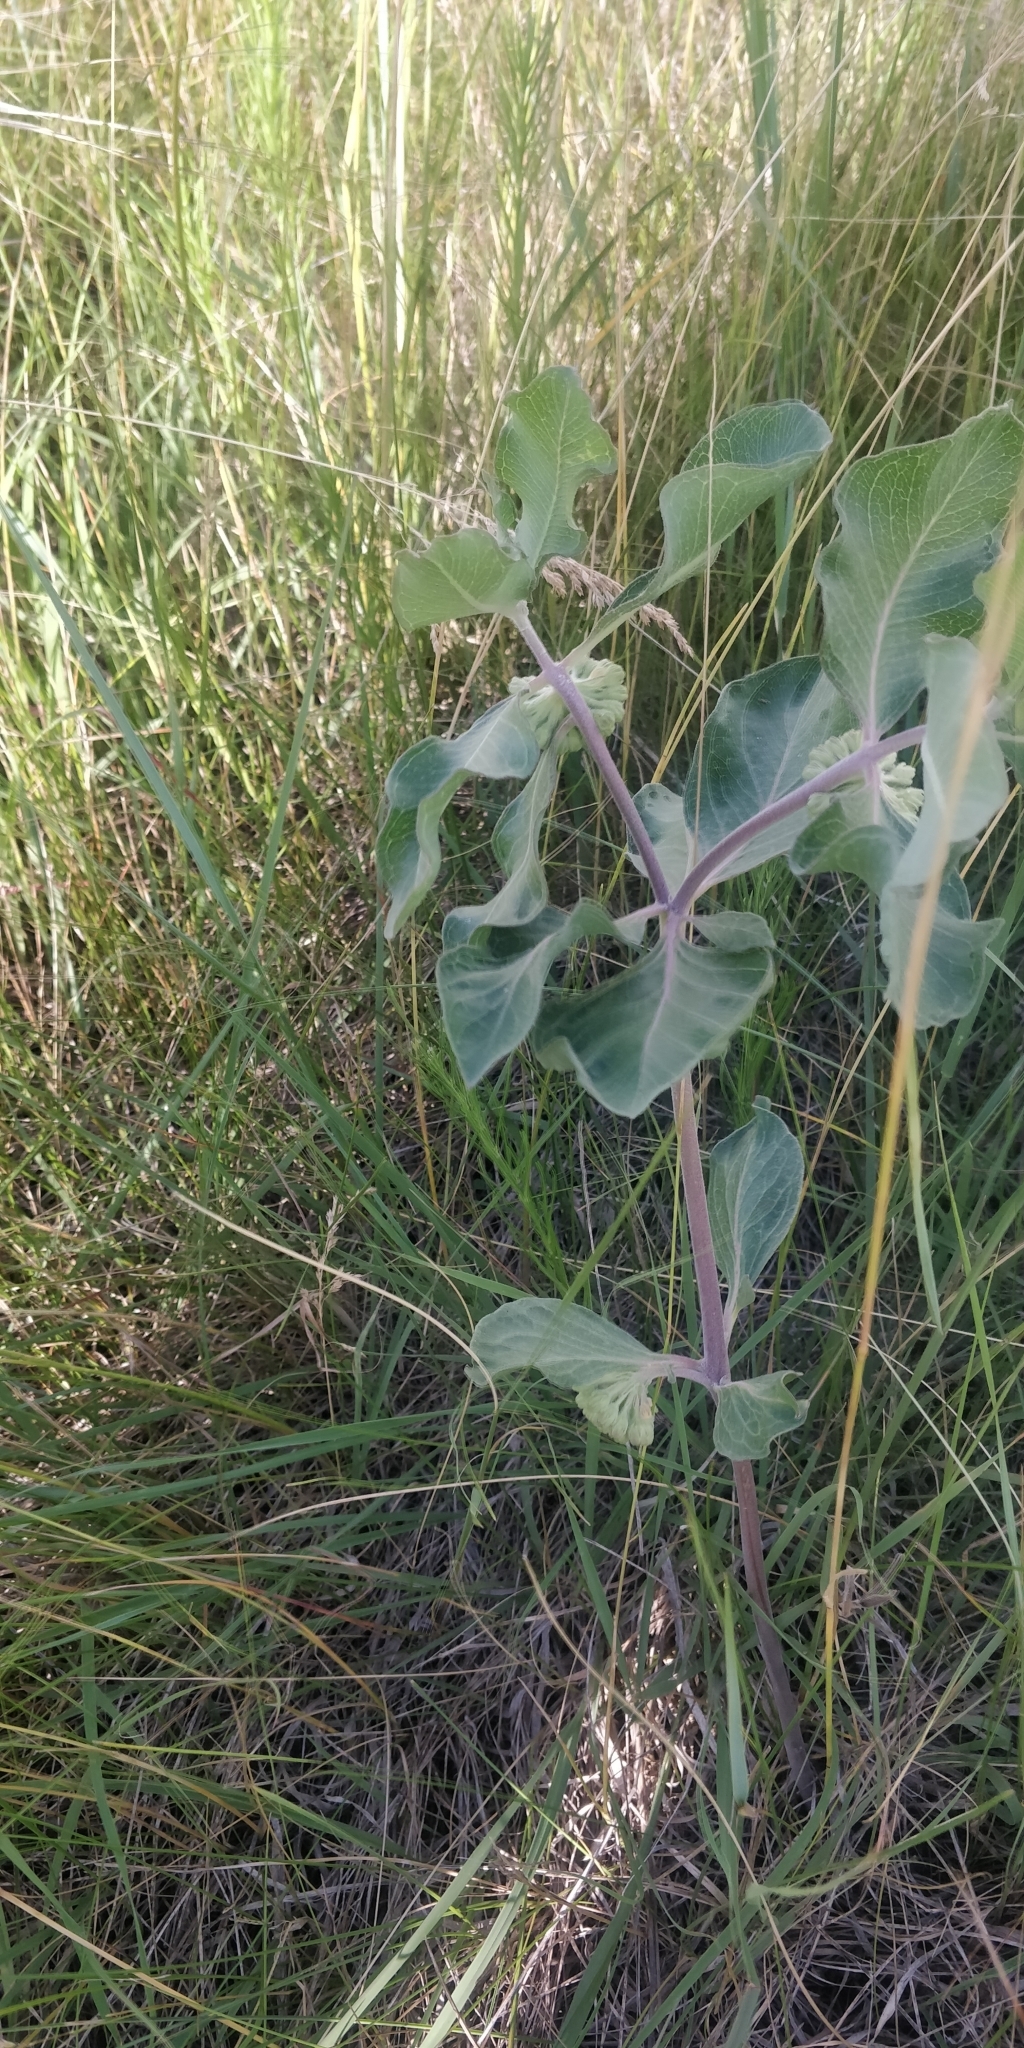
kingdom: Plantae
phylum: Tracheophyta
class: Magnoliopsida
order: Gentianales
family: Apocynaceae
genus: Asclepias
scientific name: Asclepias viridiflora
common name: Green comet milkweed
